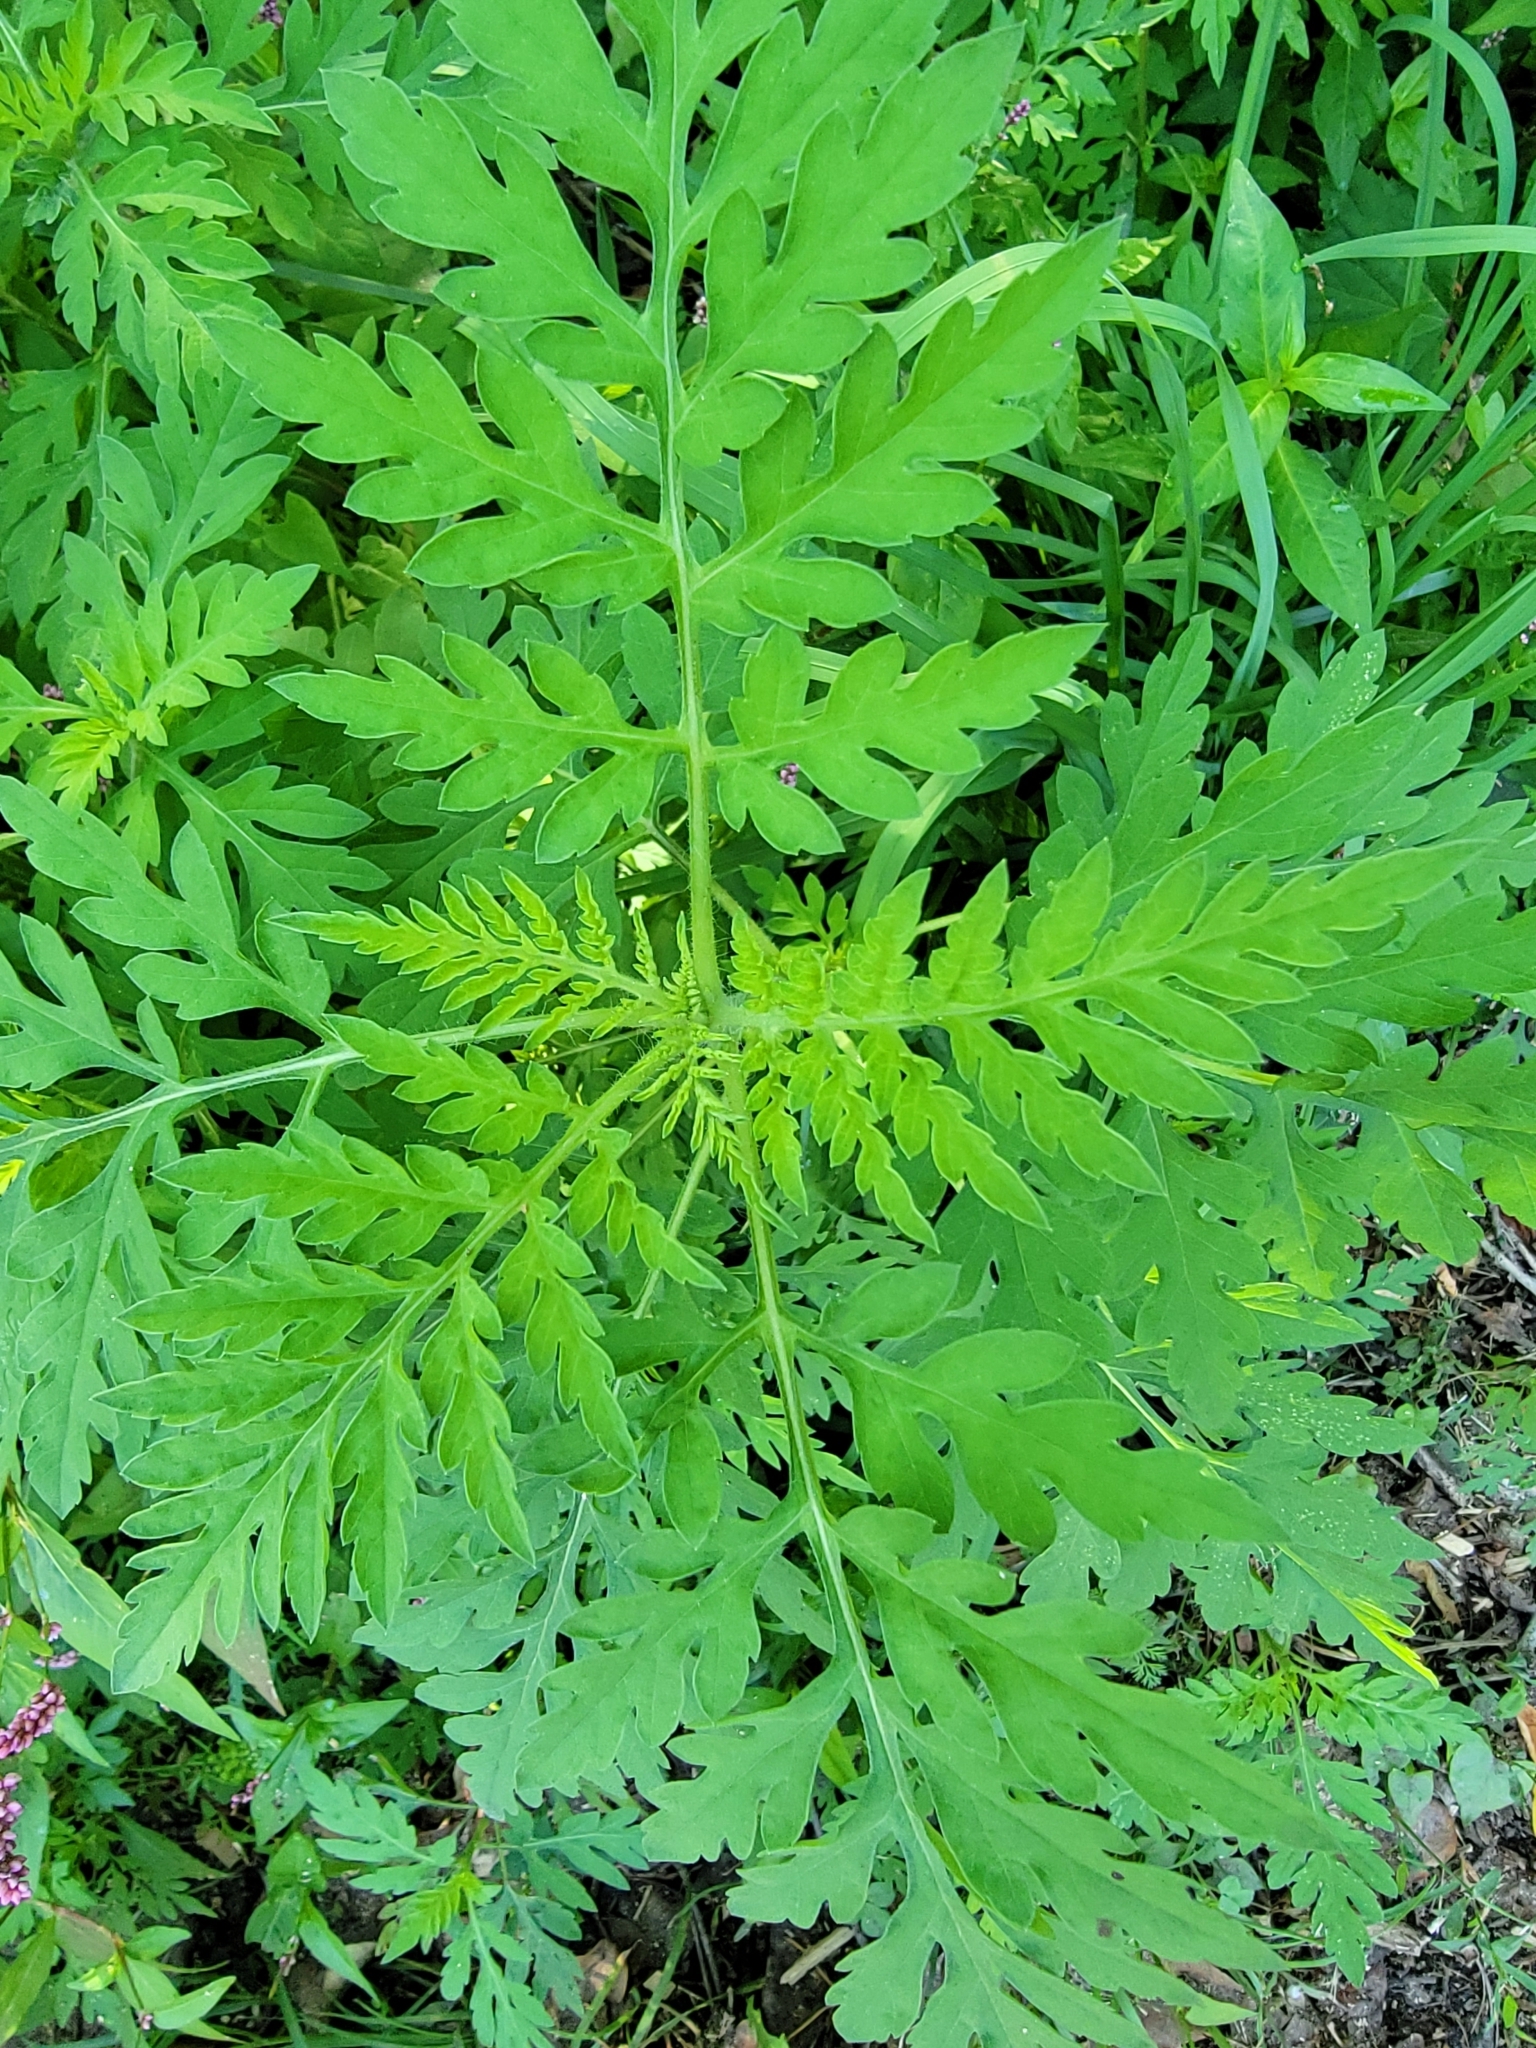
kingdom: Plantae
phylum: Tracheophyta
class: Magnoliopsida
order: Asterales
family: Asteraceae
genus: Ambrosia
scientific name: Ambrosia artemisiifolia
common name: Annual ragweed
